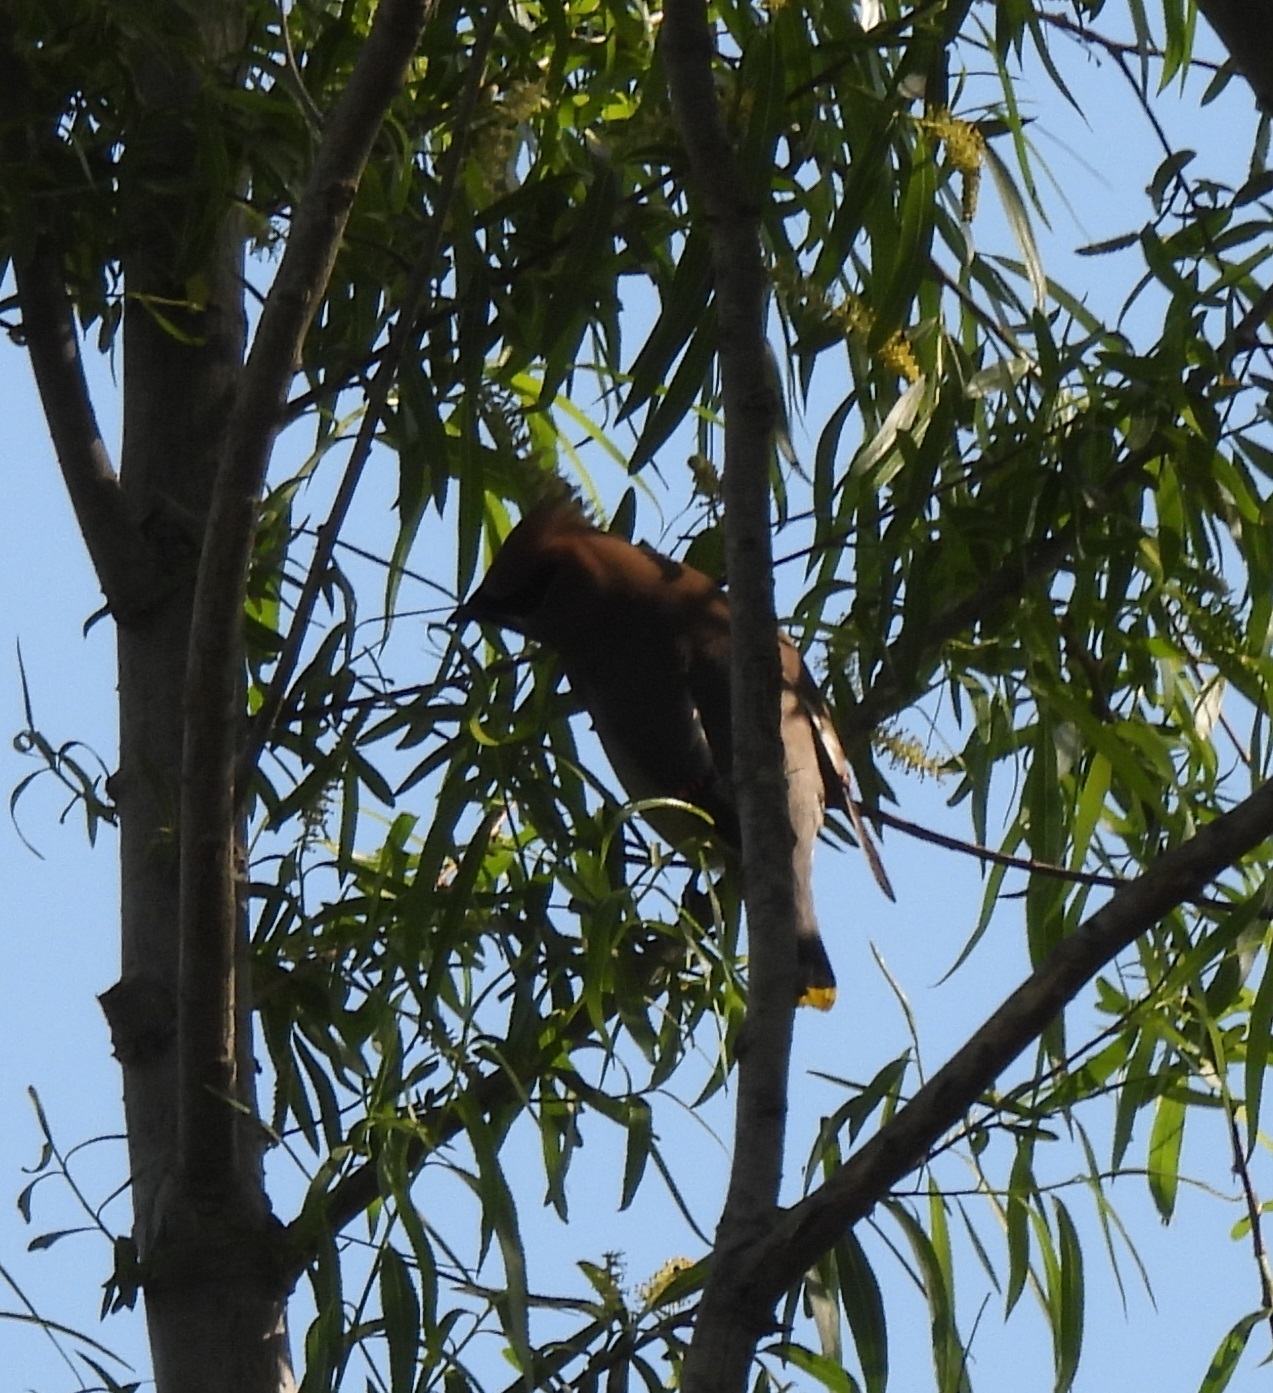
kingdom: Animalia
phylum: Chordata
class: Aves
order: Passeriformes
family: Bombycillidae
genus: Bombycilla
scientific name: Bombycilla cedrorum
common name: Cedar waxwing
